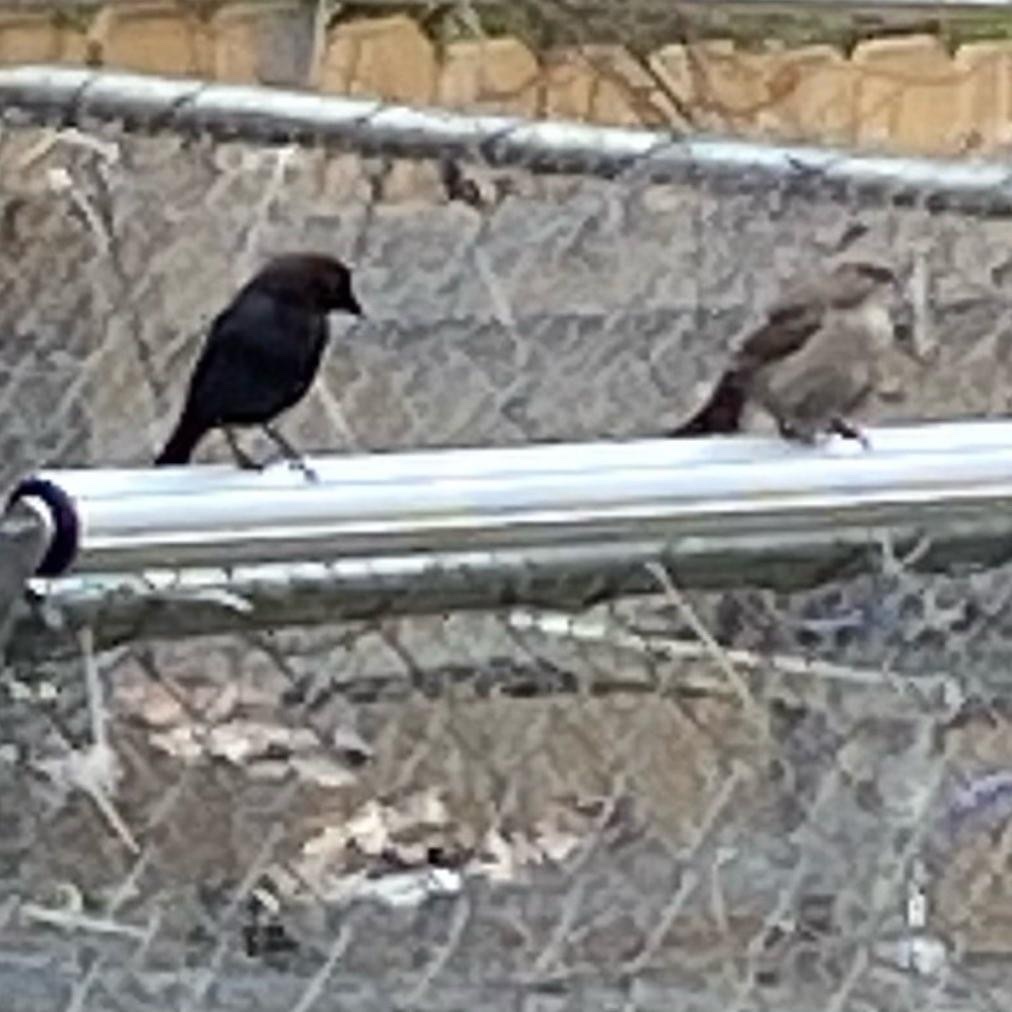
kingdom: Animalia
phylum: Chordata
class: Aves
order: Passeriformes
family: Icteridae
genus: Molothrus
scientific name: Molothrus ater
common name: Brown-headed cowbird
